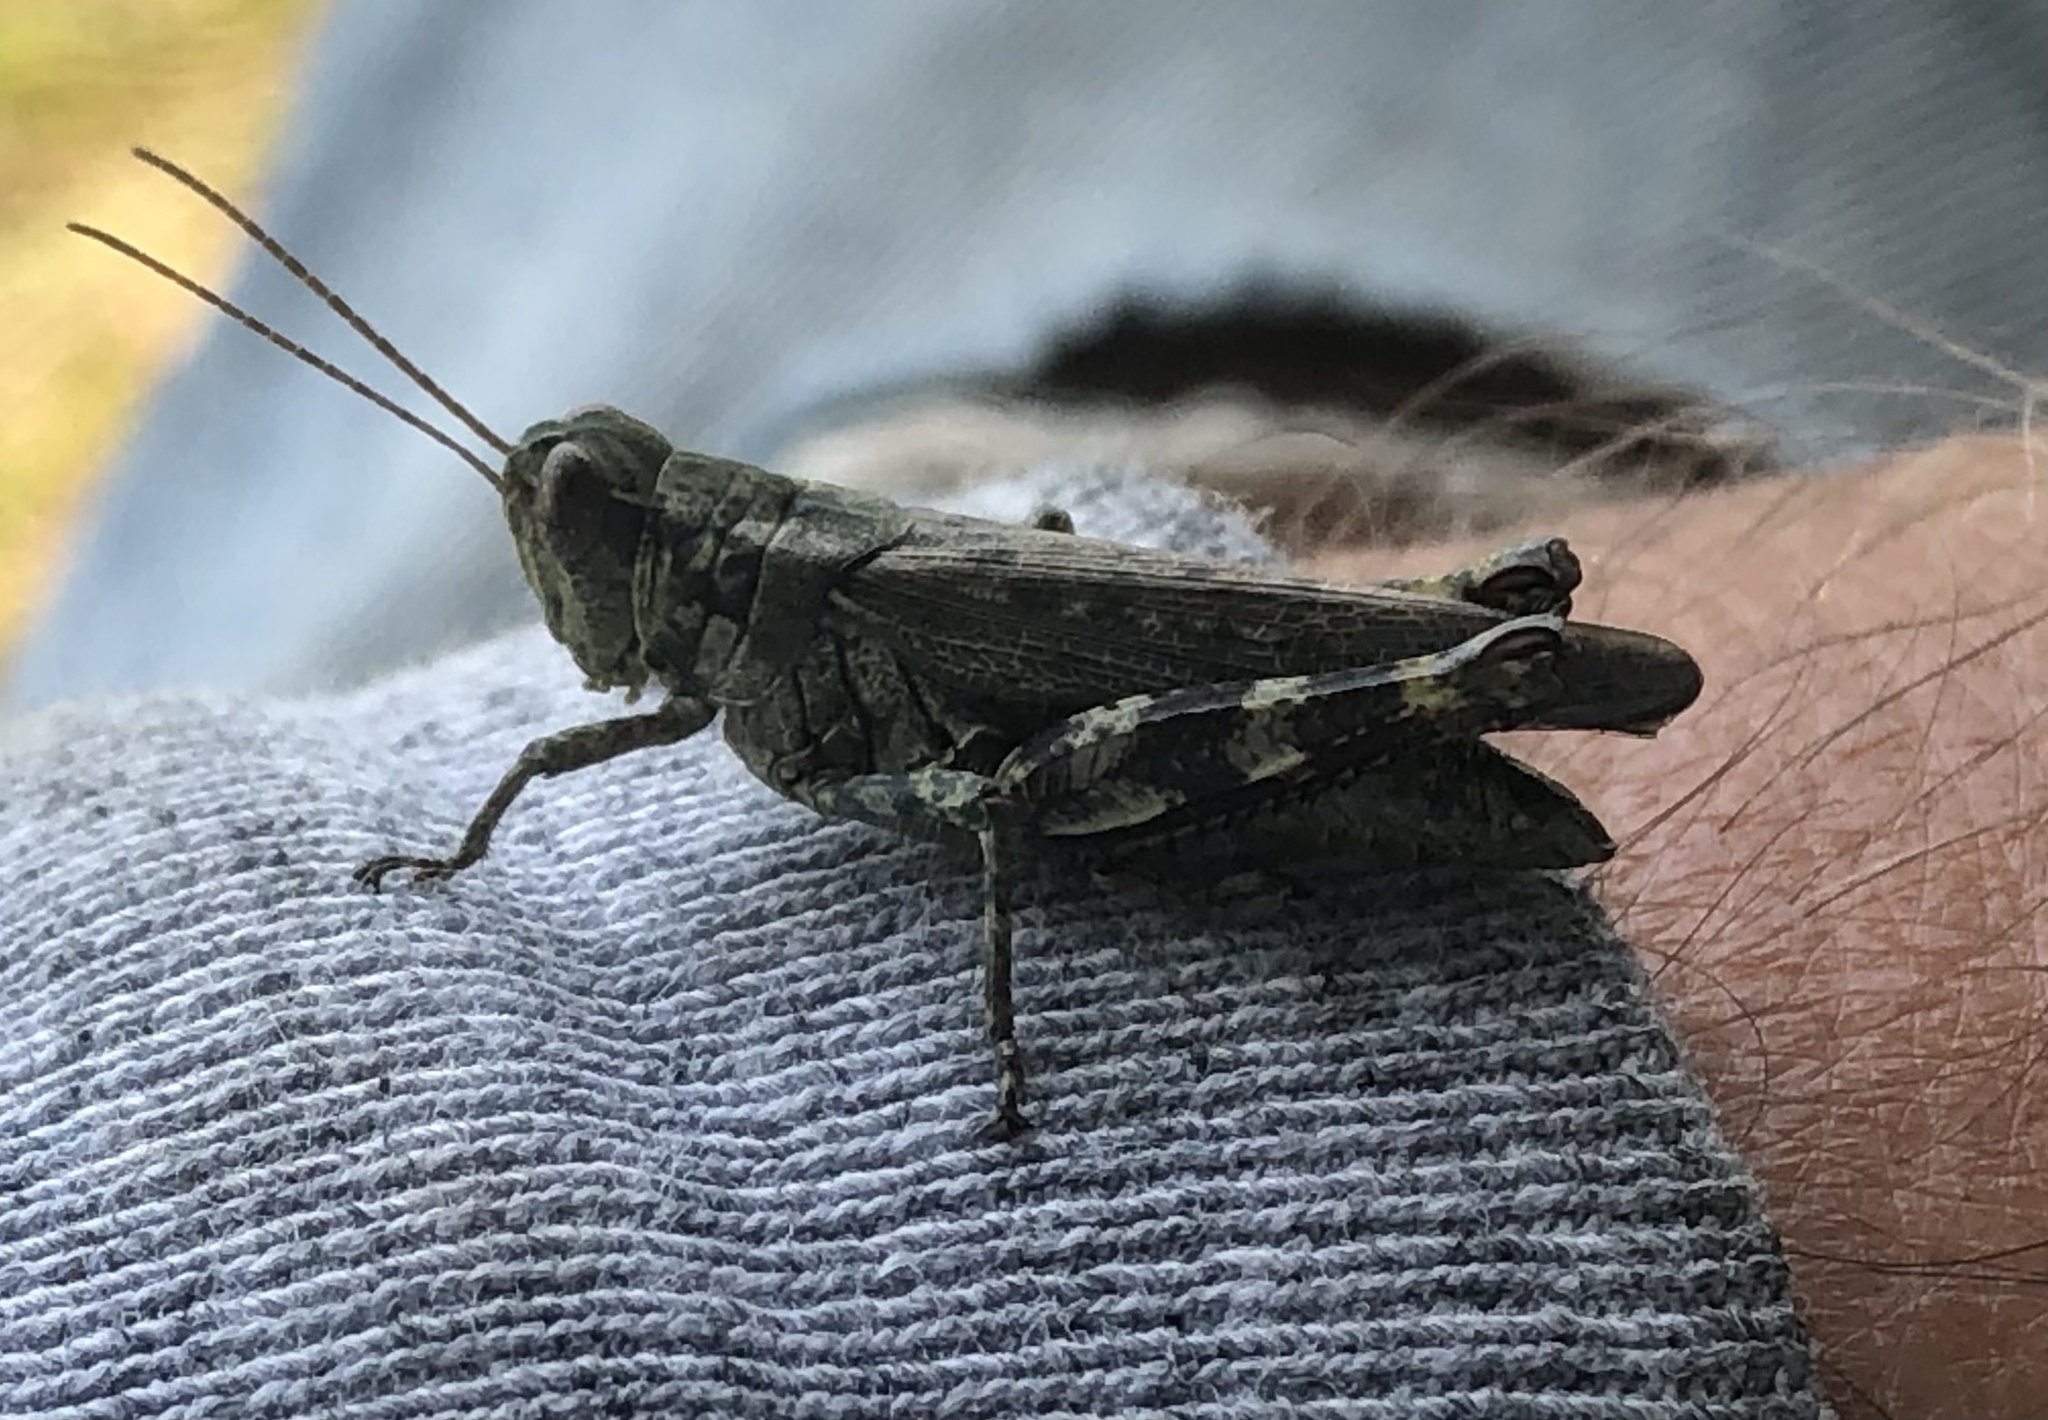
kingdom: Animalia
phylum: Arthropoda
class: Insecta
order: Orthoptera
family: Acrididae
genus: Melanoplus
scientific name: Melanoplus punctulatus
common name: Pine-tree spur-throat grasshopper
